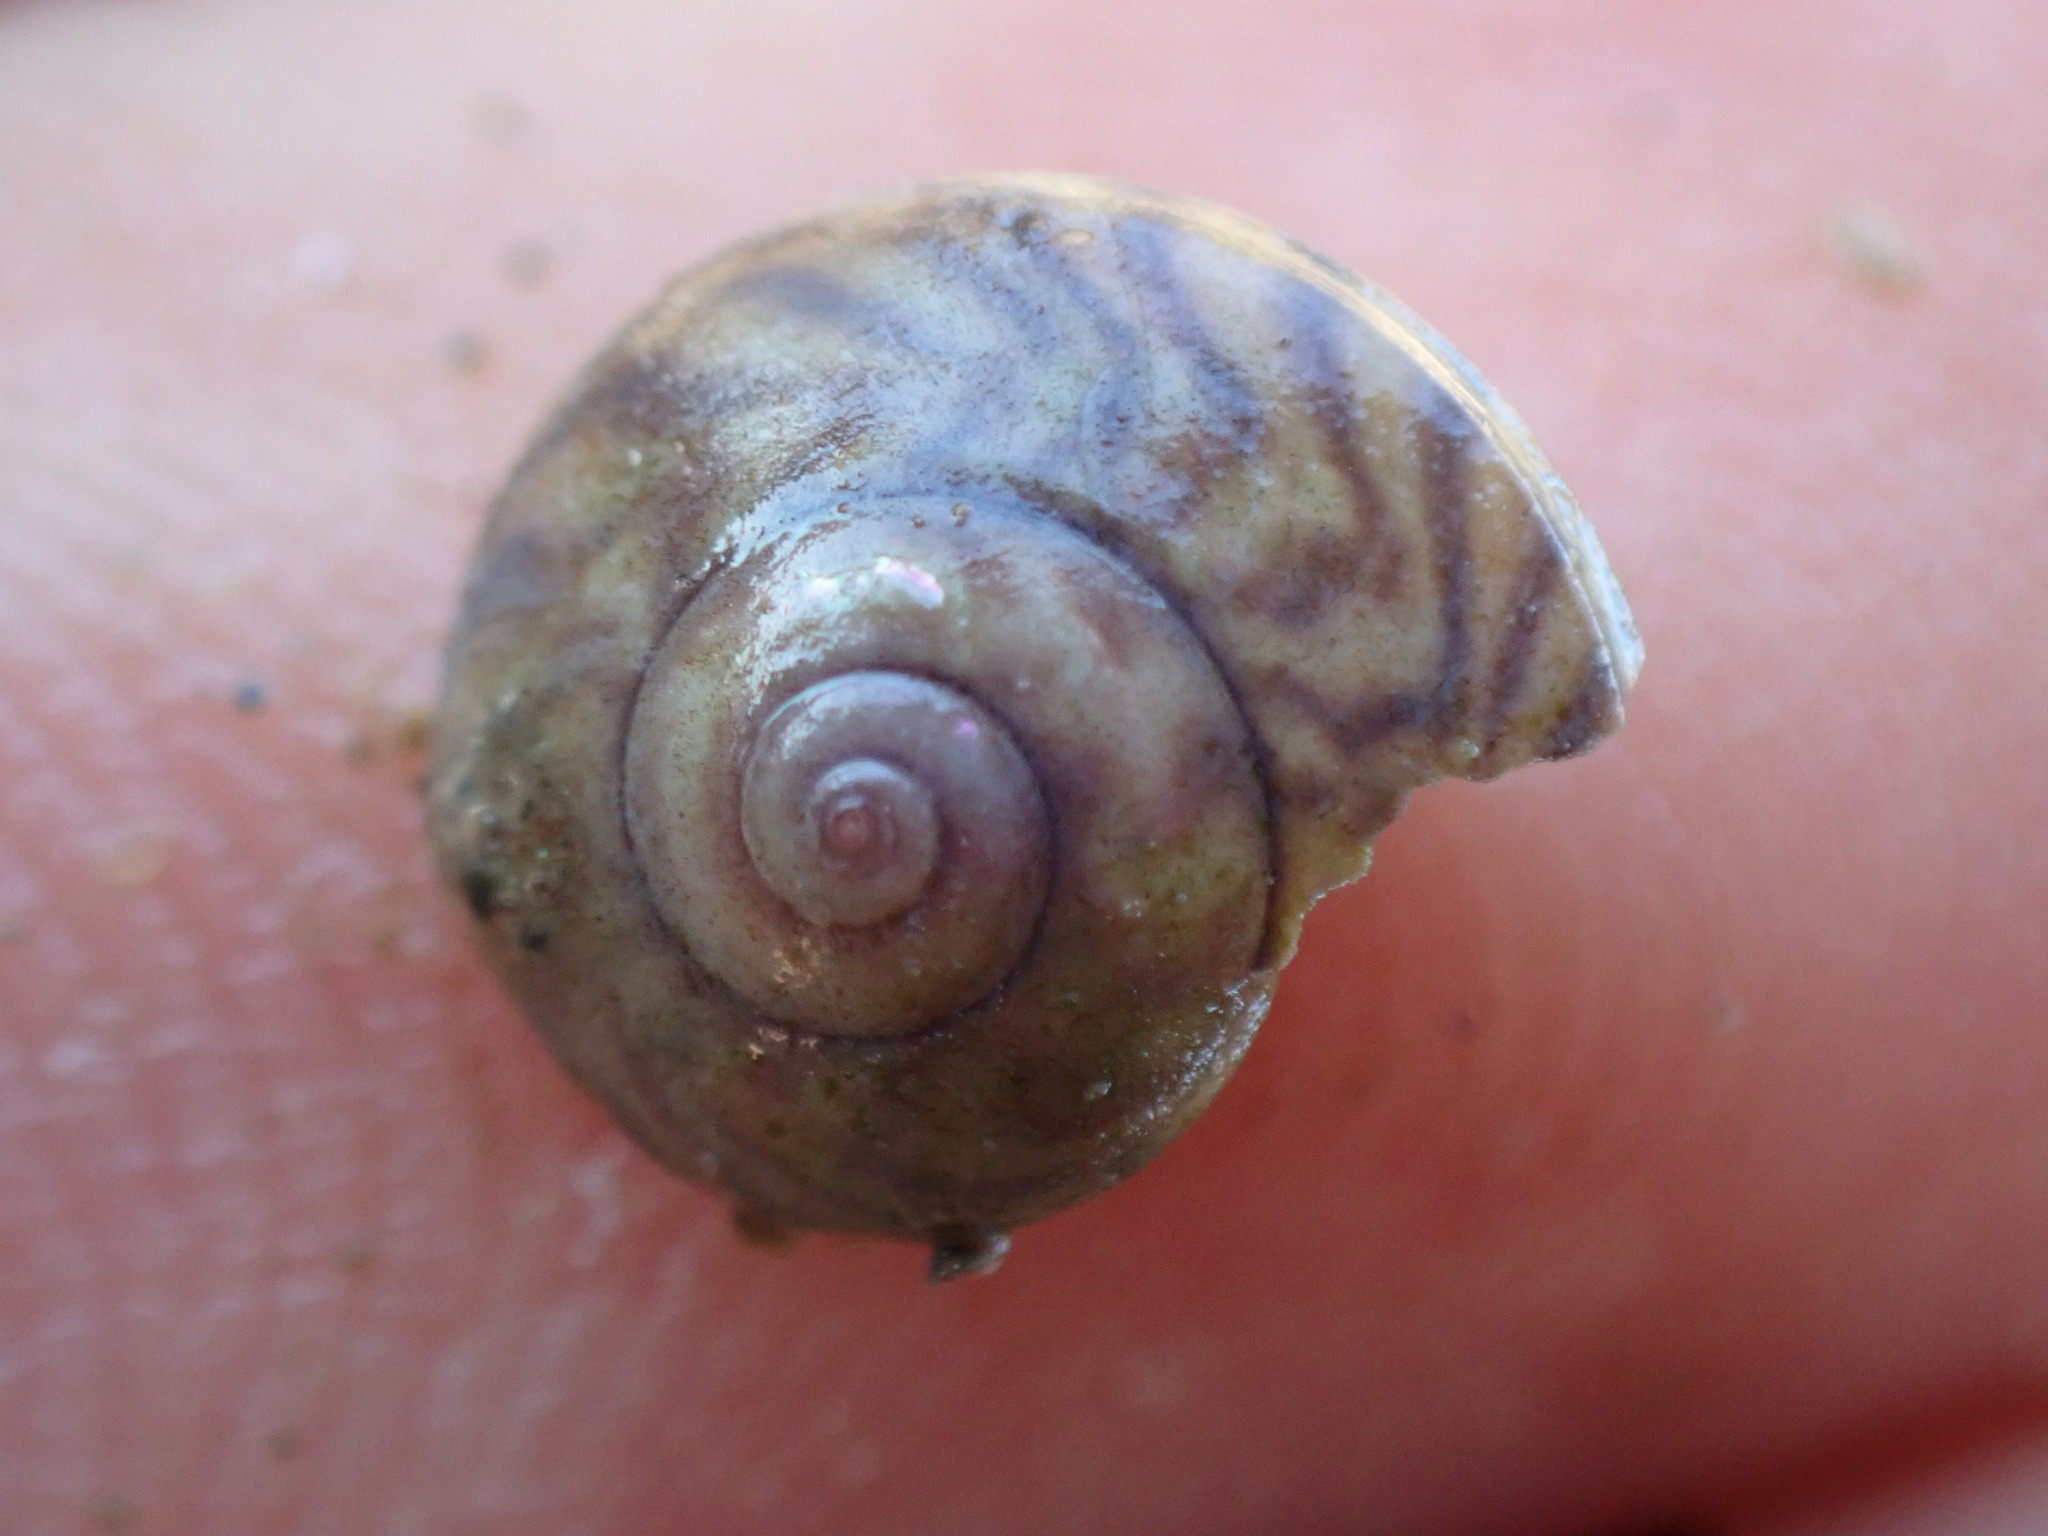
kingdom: Animalia
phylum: Mollusca
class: Gastropoda
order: Trochida
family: Trochidae
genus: Zethalia
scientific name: Zethalia zelandica
